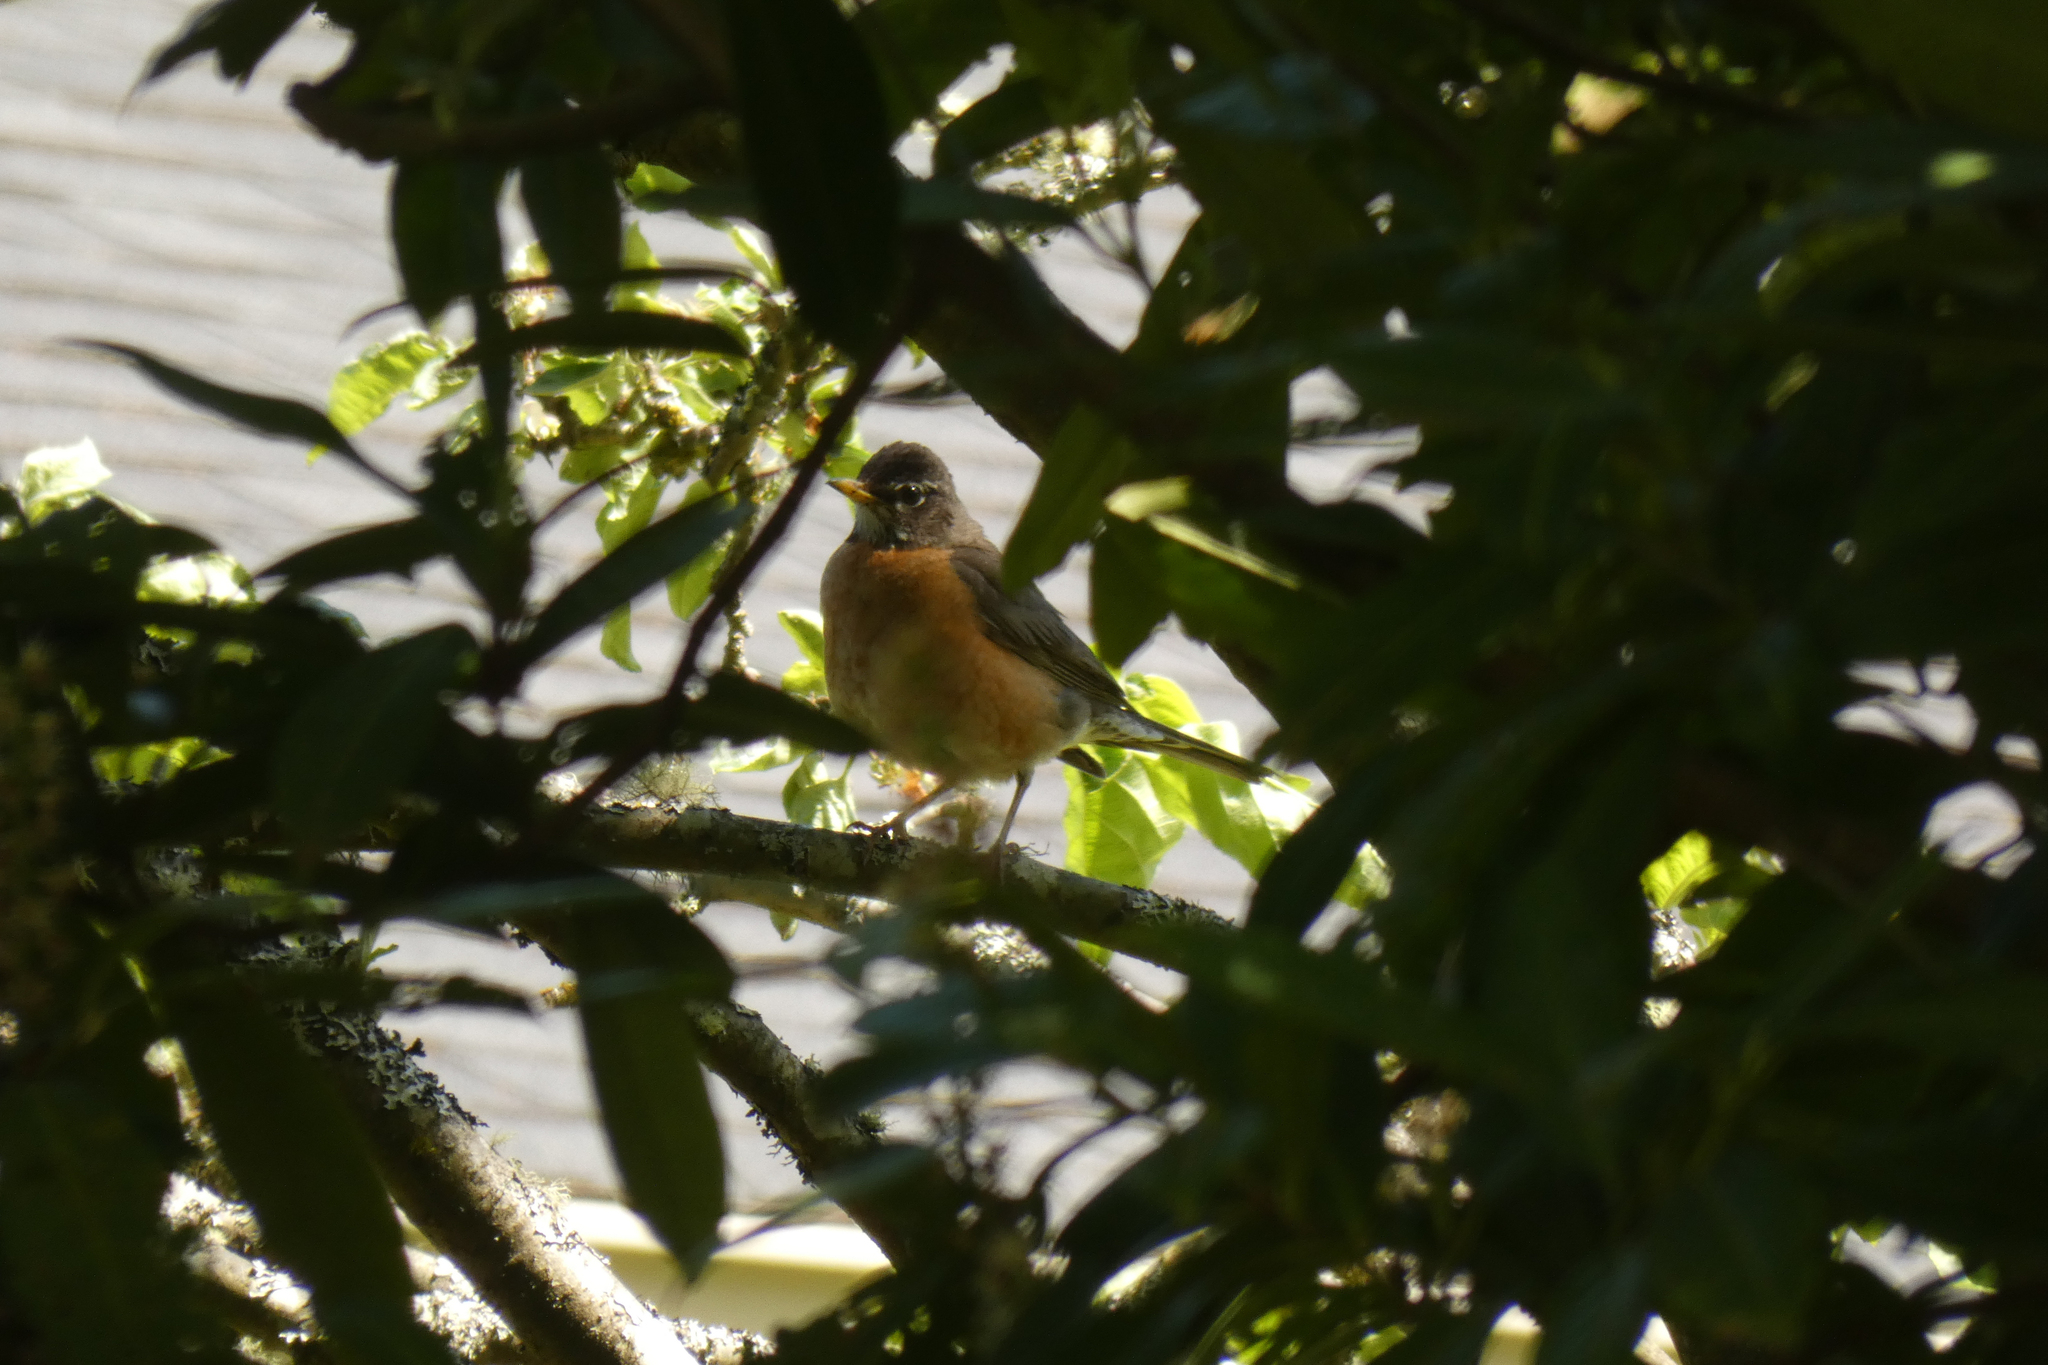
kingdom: Animalia
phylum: Chordata
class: Aves
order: Passeriformes
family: Turdidae
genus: Turdus
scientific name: Turdus migratorius
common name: American robin
